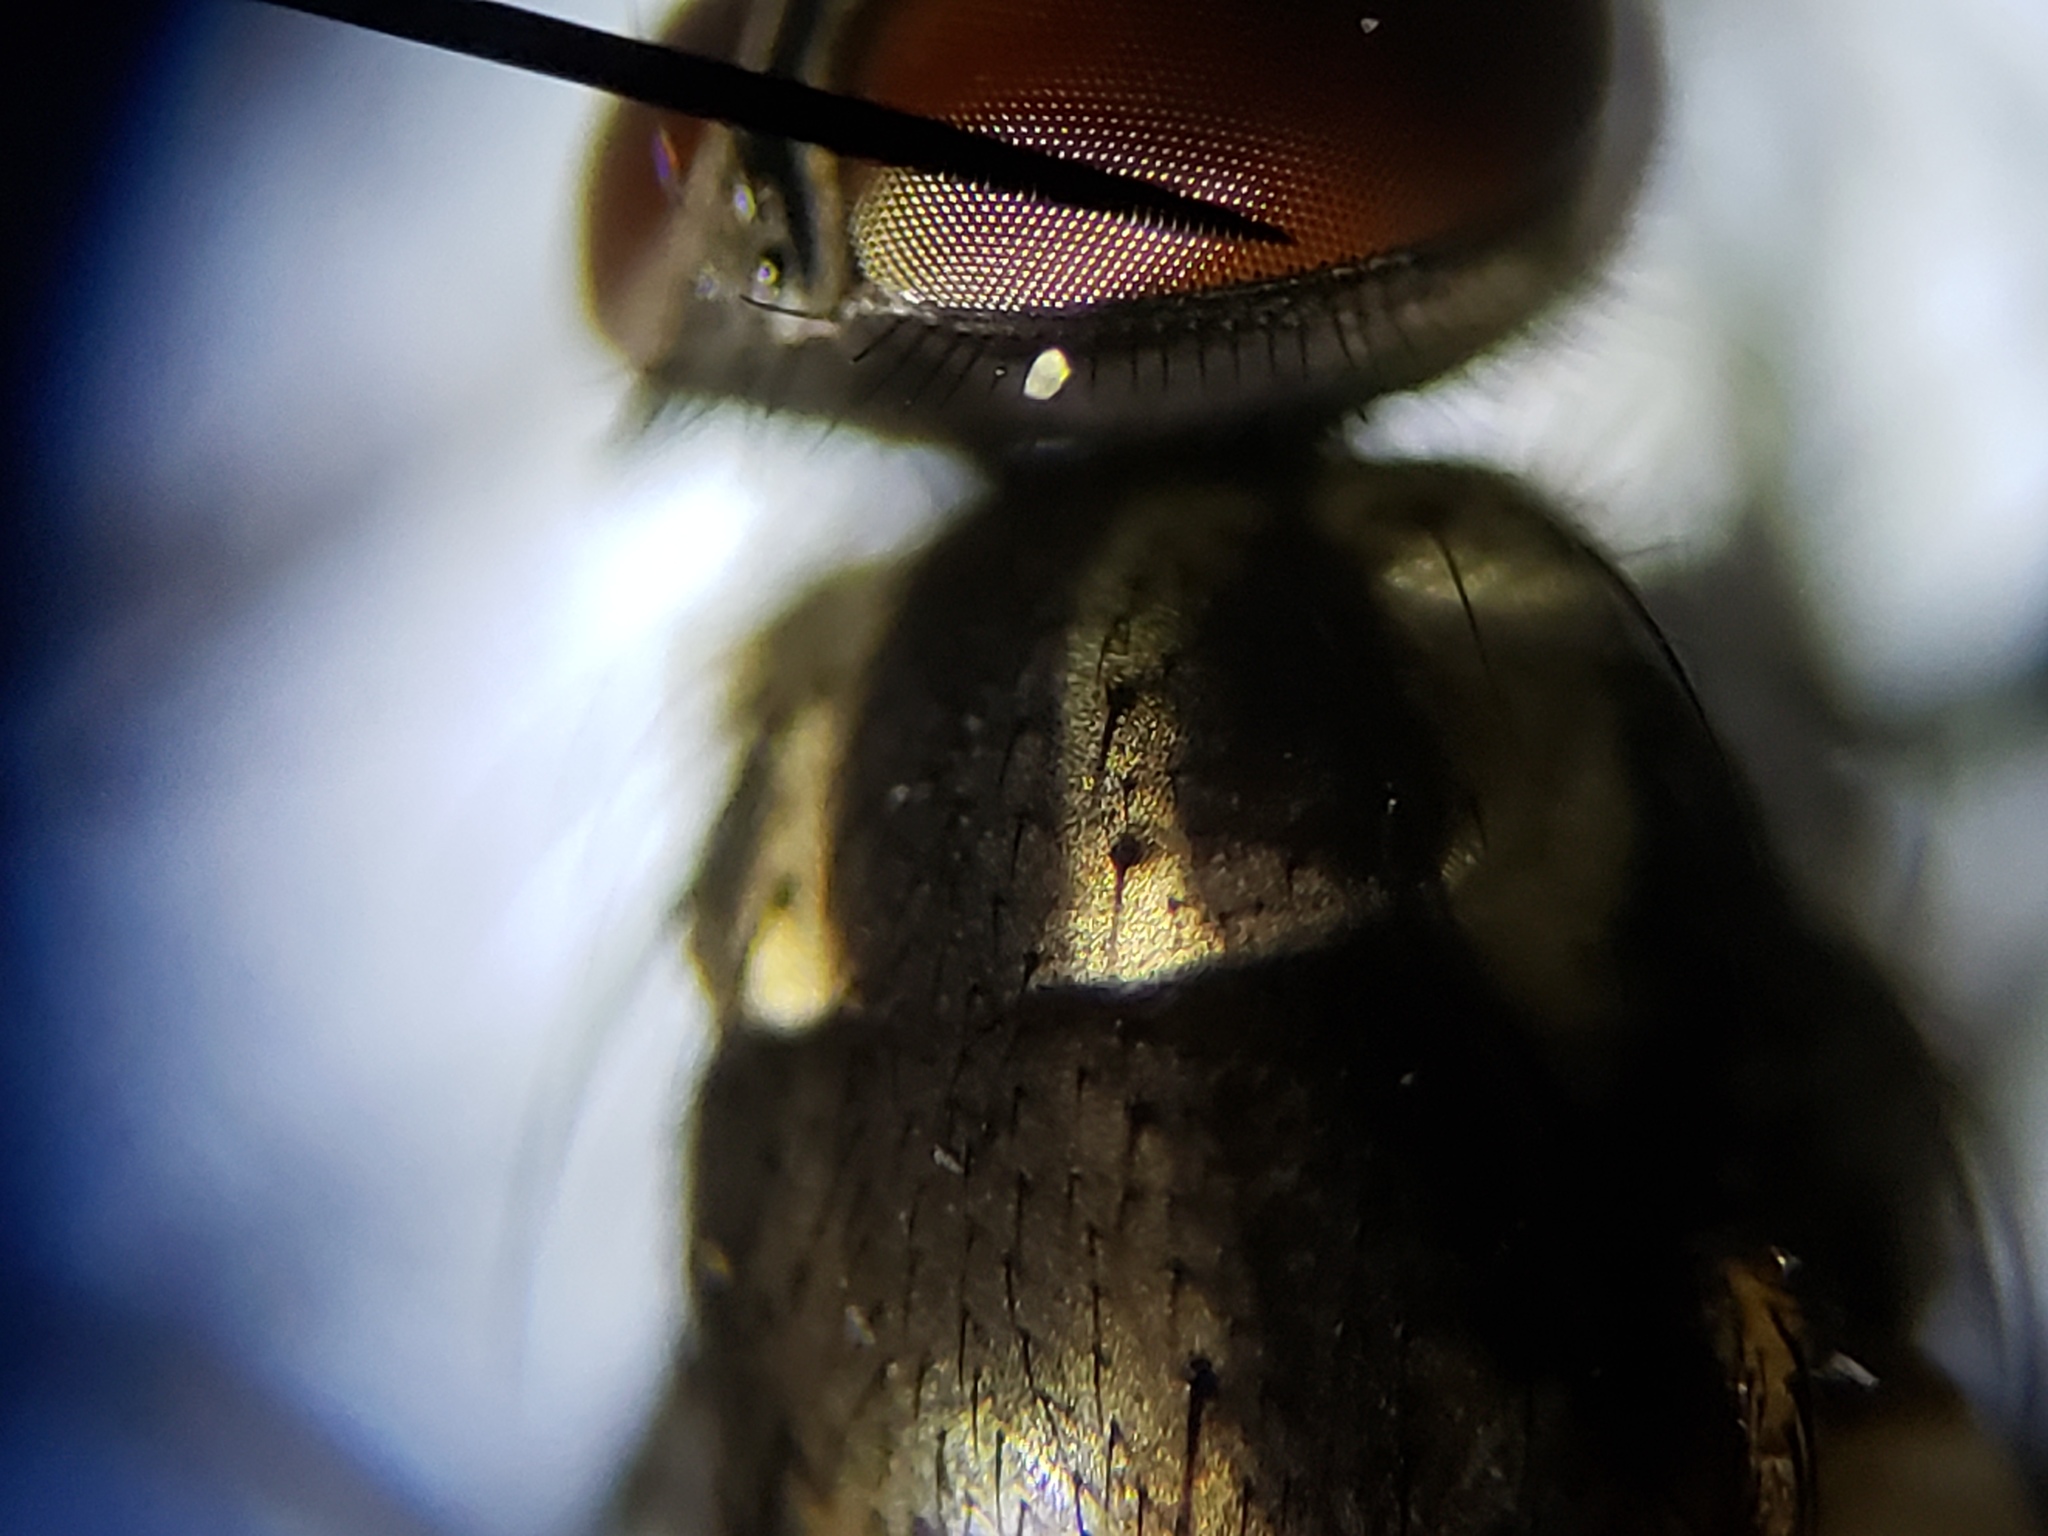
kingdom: Animalia
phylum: Arthropoda
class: Insecta
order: Diptera
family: Muscidae
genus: Limnophora
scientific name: Limnophora narona
